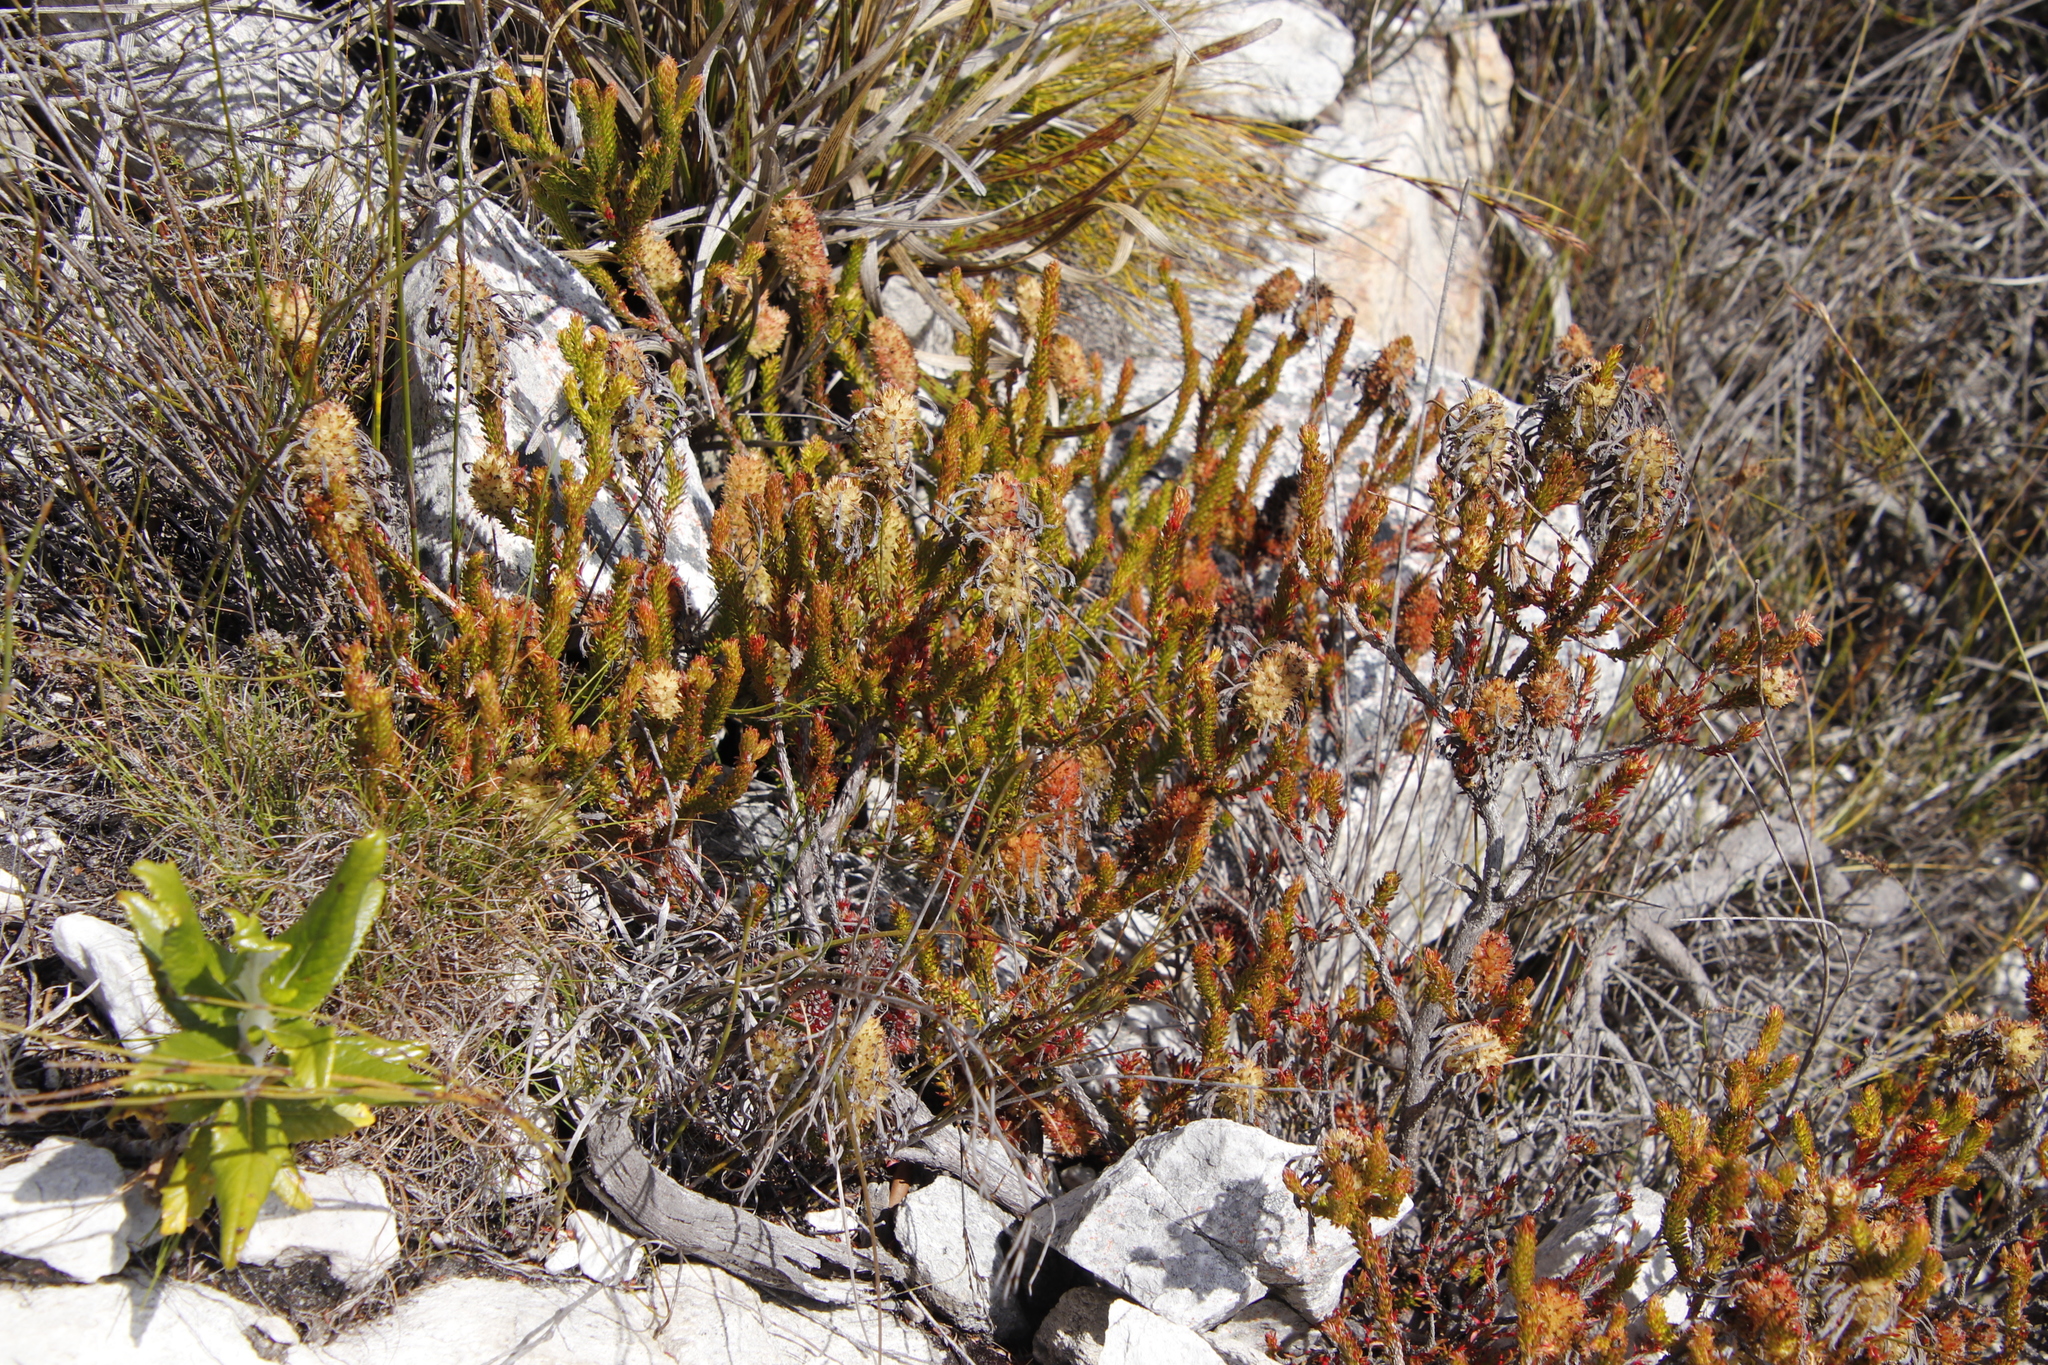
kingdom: Plantae
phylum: Tracheophyta
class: Magnoliopsida
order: Ericales
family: Ericaceae
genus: Erica
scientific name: Erica sessiliflora
